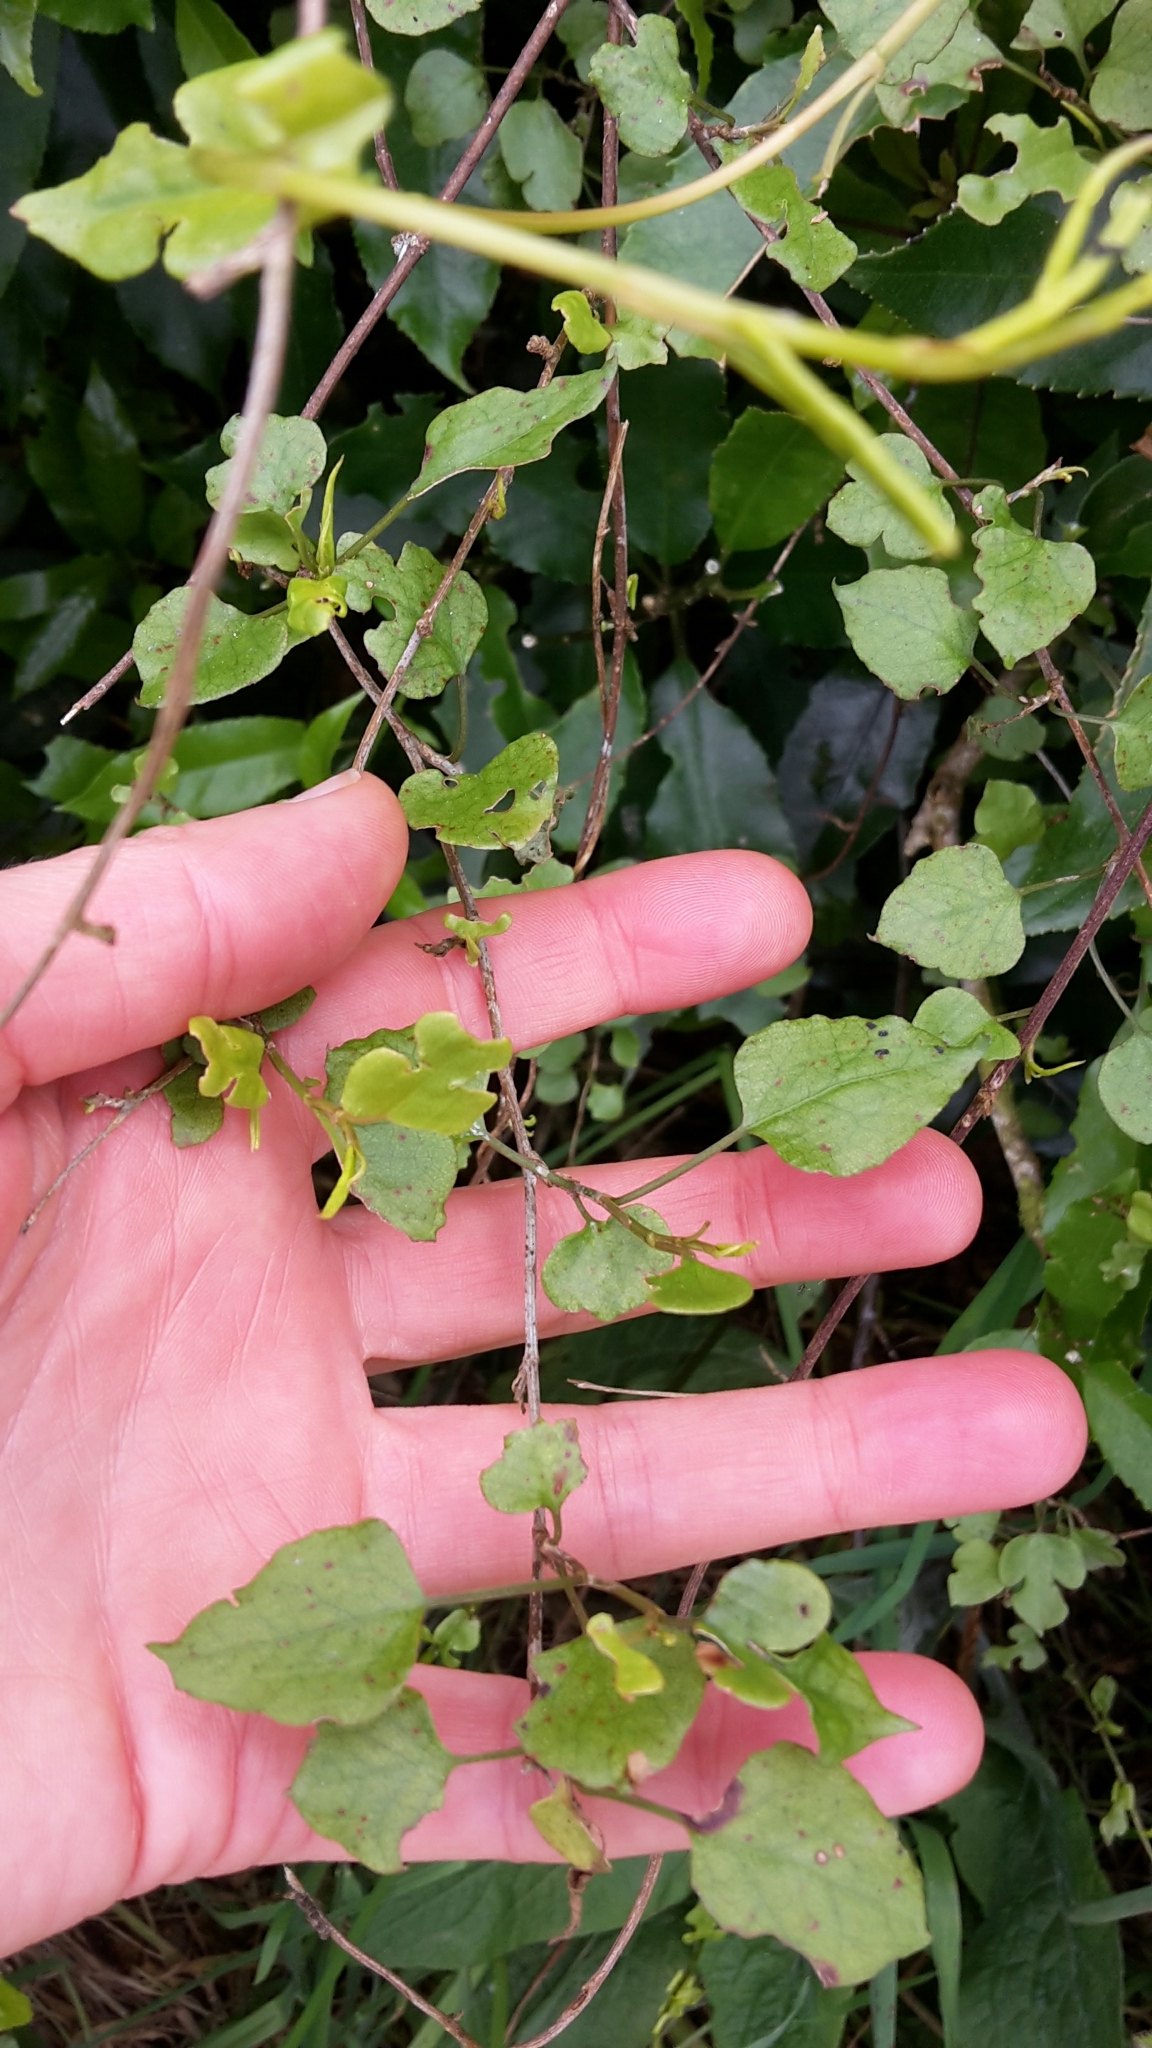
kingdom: Plantae
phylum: Tracheophyta
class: Magnoliopsida
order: Caryophyllales
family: Polygonaceae
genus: Muehlenbeckia
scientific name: Muehlenbeckia australis
